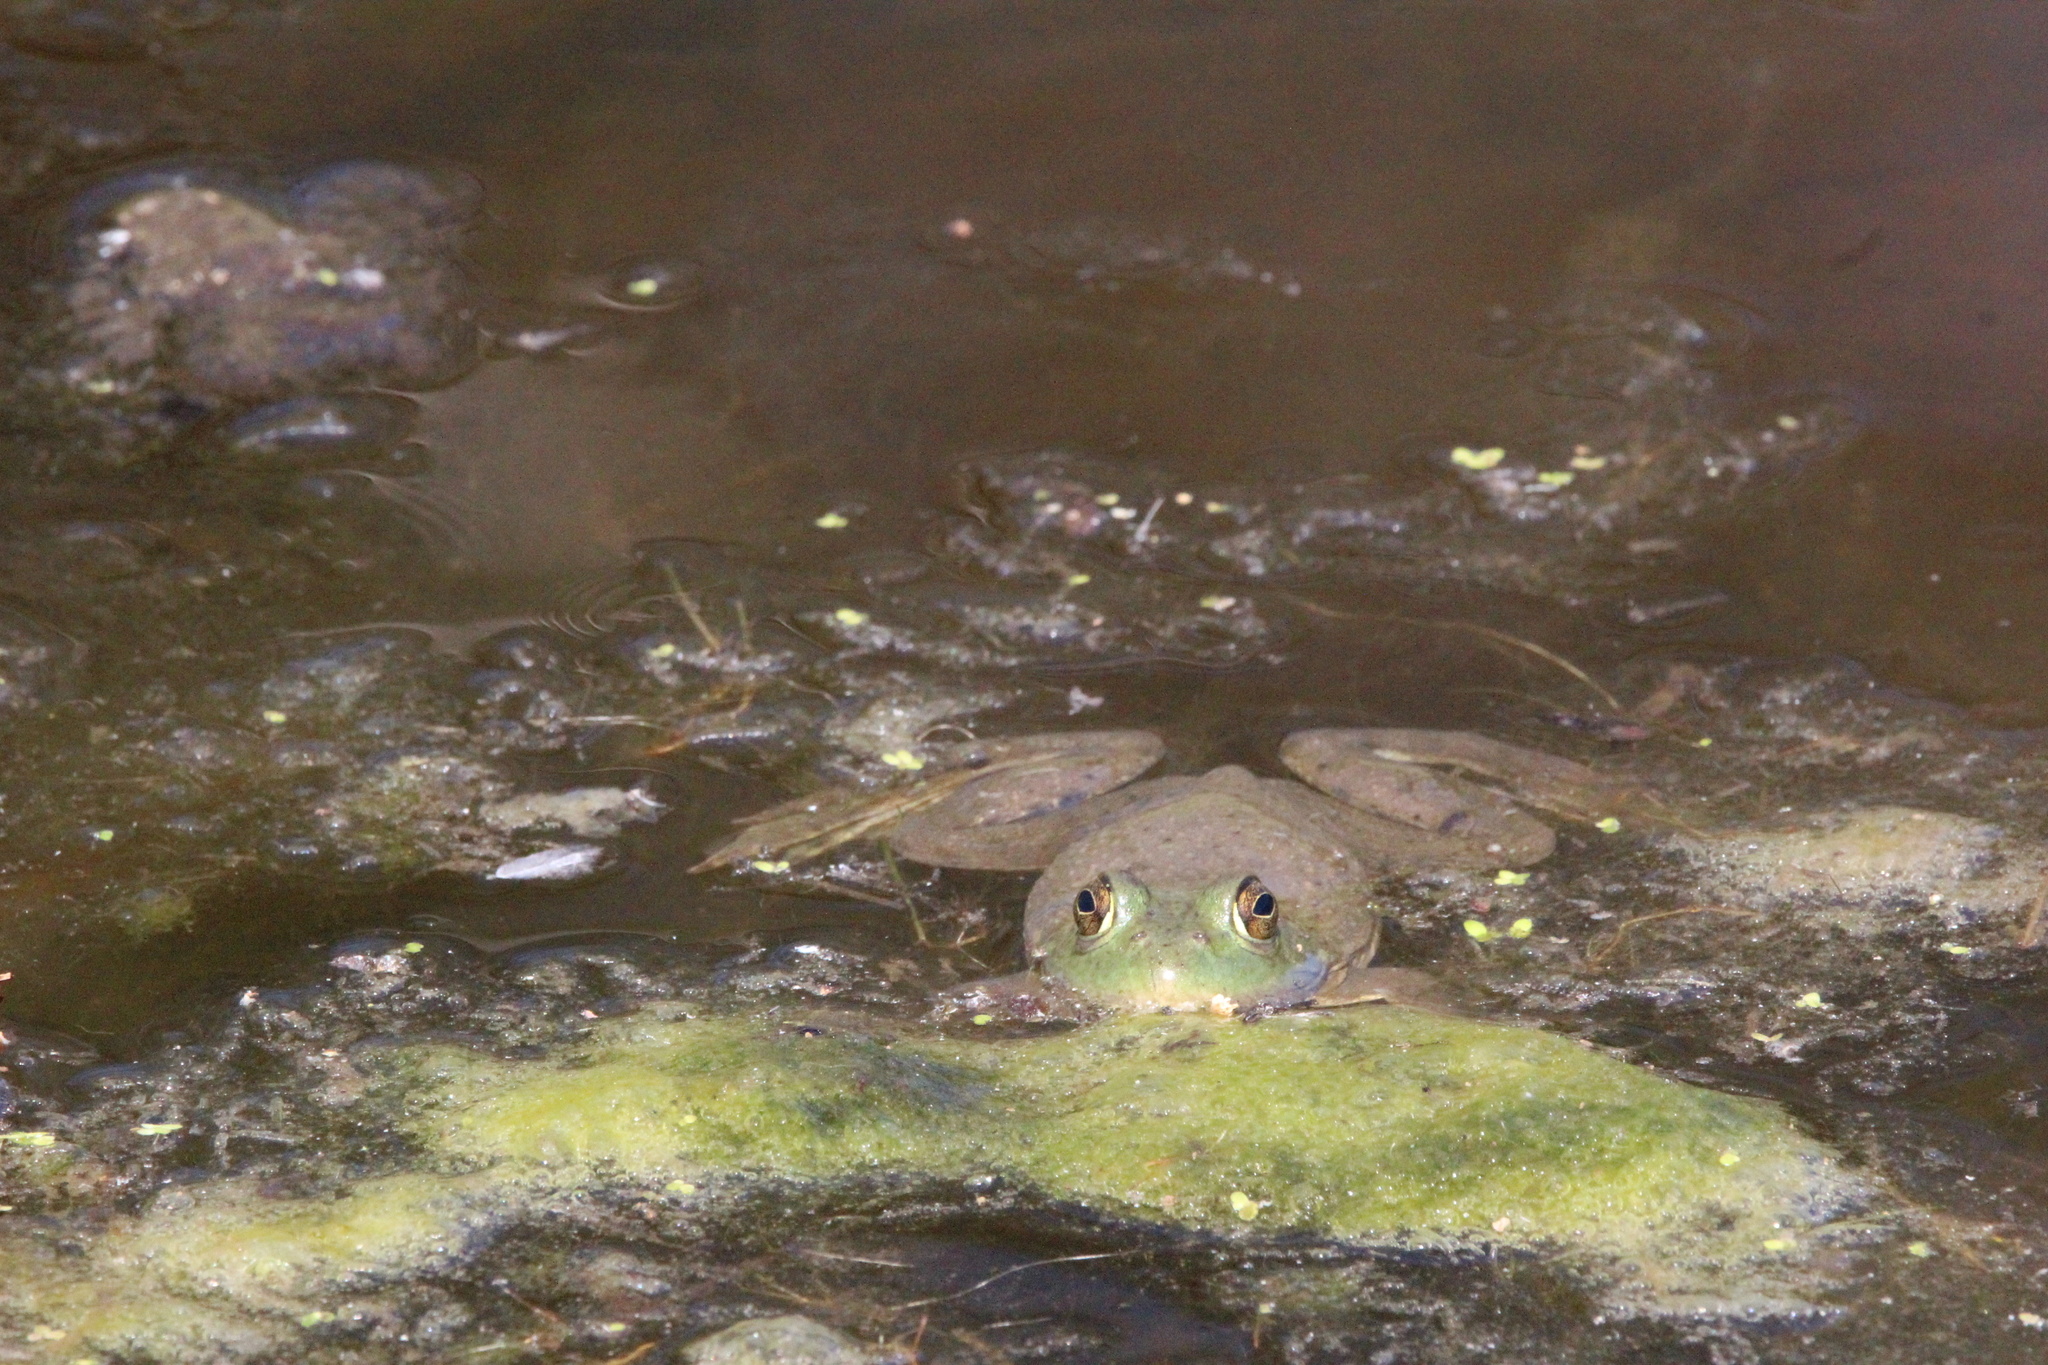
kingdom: Animalia
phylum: Chordata
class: Amphibia
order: Anura
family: Ranidae
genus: Lithobates
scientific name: Lithobates catesbeianus
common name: American bullfrog
